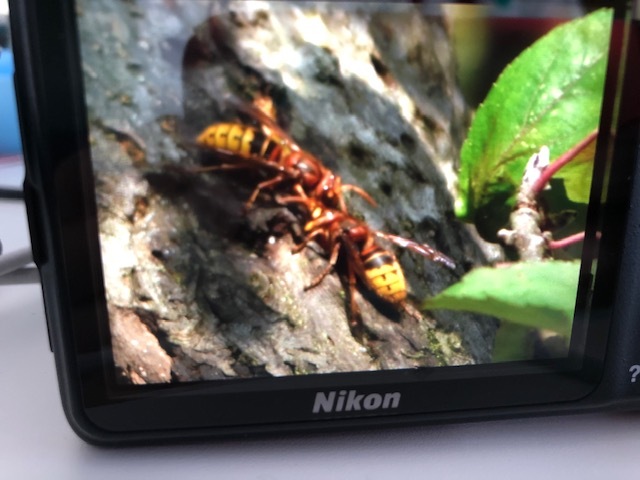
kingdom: Animalia
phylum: Arthropoda
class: Insecta
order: Hymenoptera
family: Vespidae
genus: Vespa
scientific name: Vespa crabro
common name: Hornet
